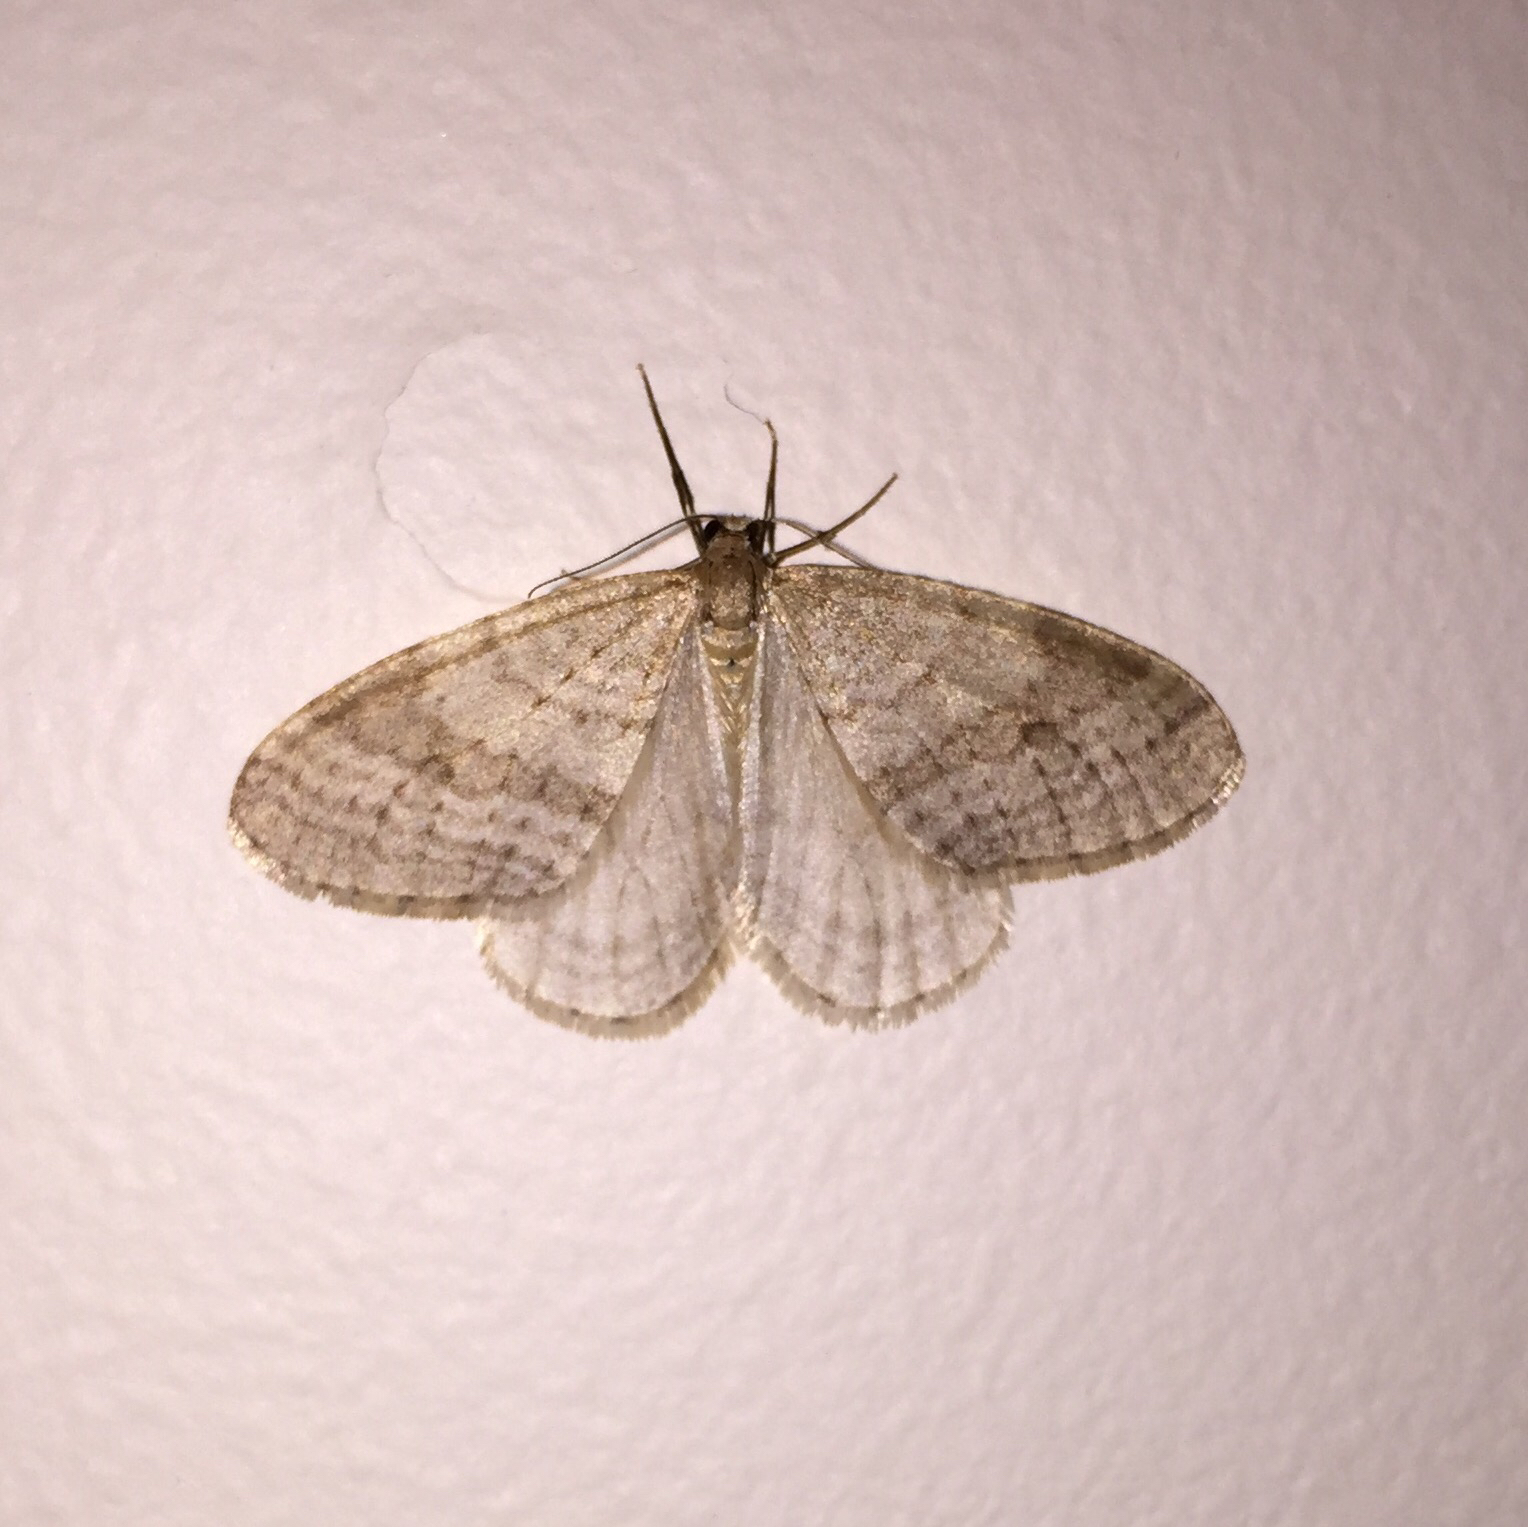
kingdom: Animalia
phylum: Arthropoda
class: Insecta
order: Lepidoptera
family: Geometridae
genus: Operophtera
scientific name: Operophtera bruceata
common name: Bruce spanworm
